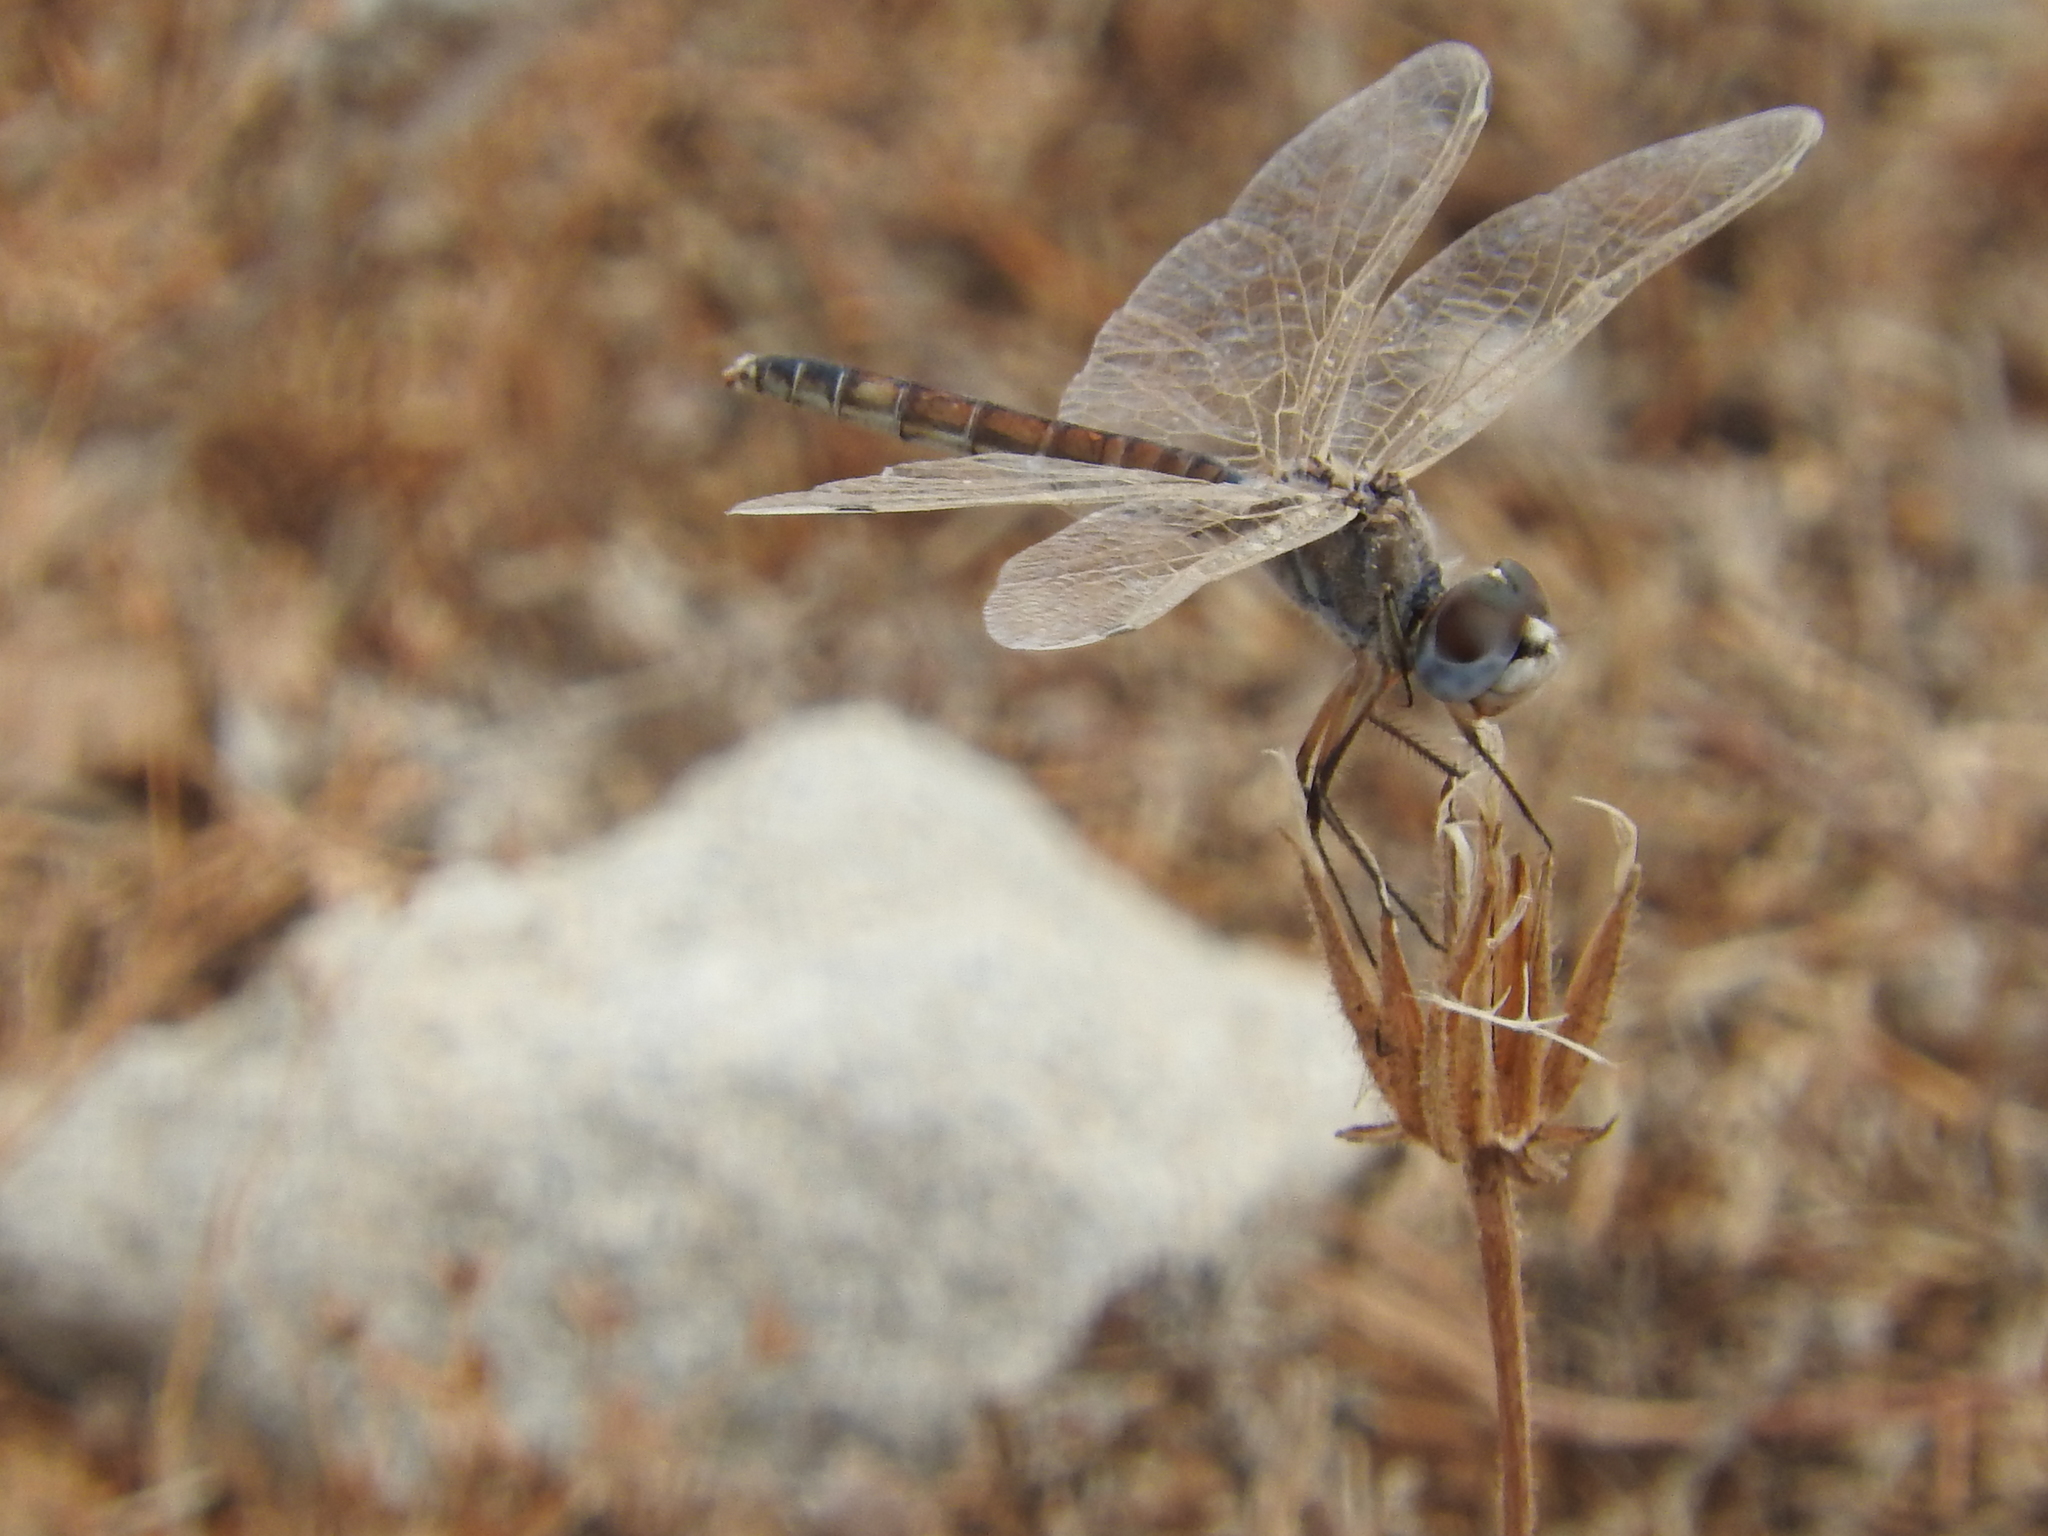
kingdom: Animalia
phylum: Arthropoda
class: Insecta
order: Odonata
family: Libellulidae
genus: Selysiothemis
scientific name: Selysiothemis nigra
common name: Black pennant
